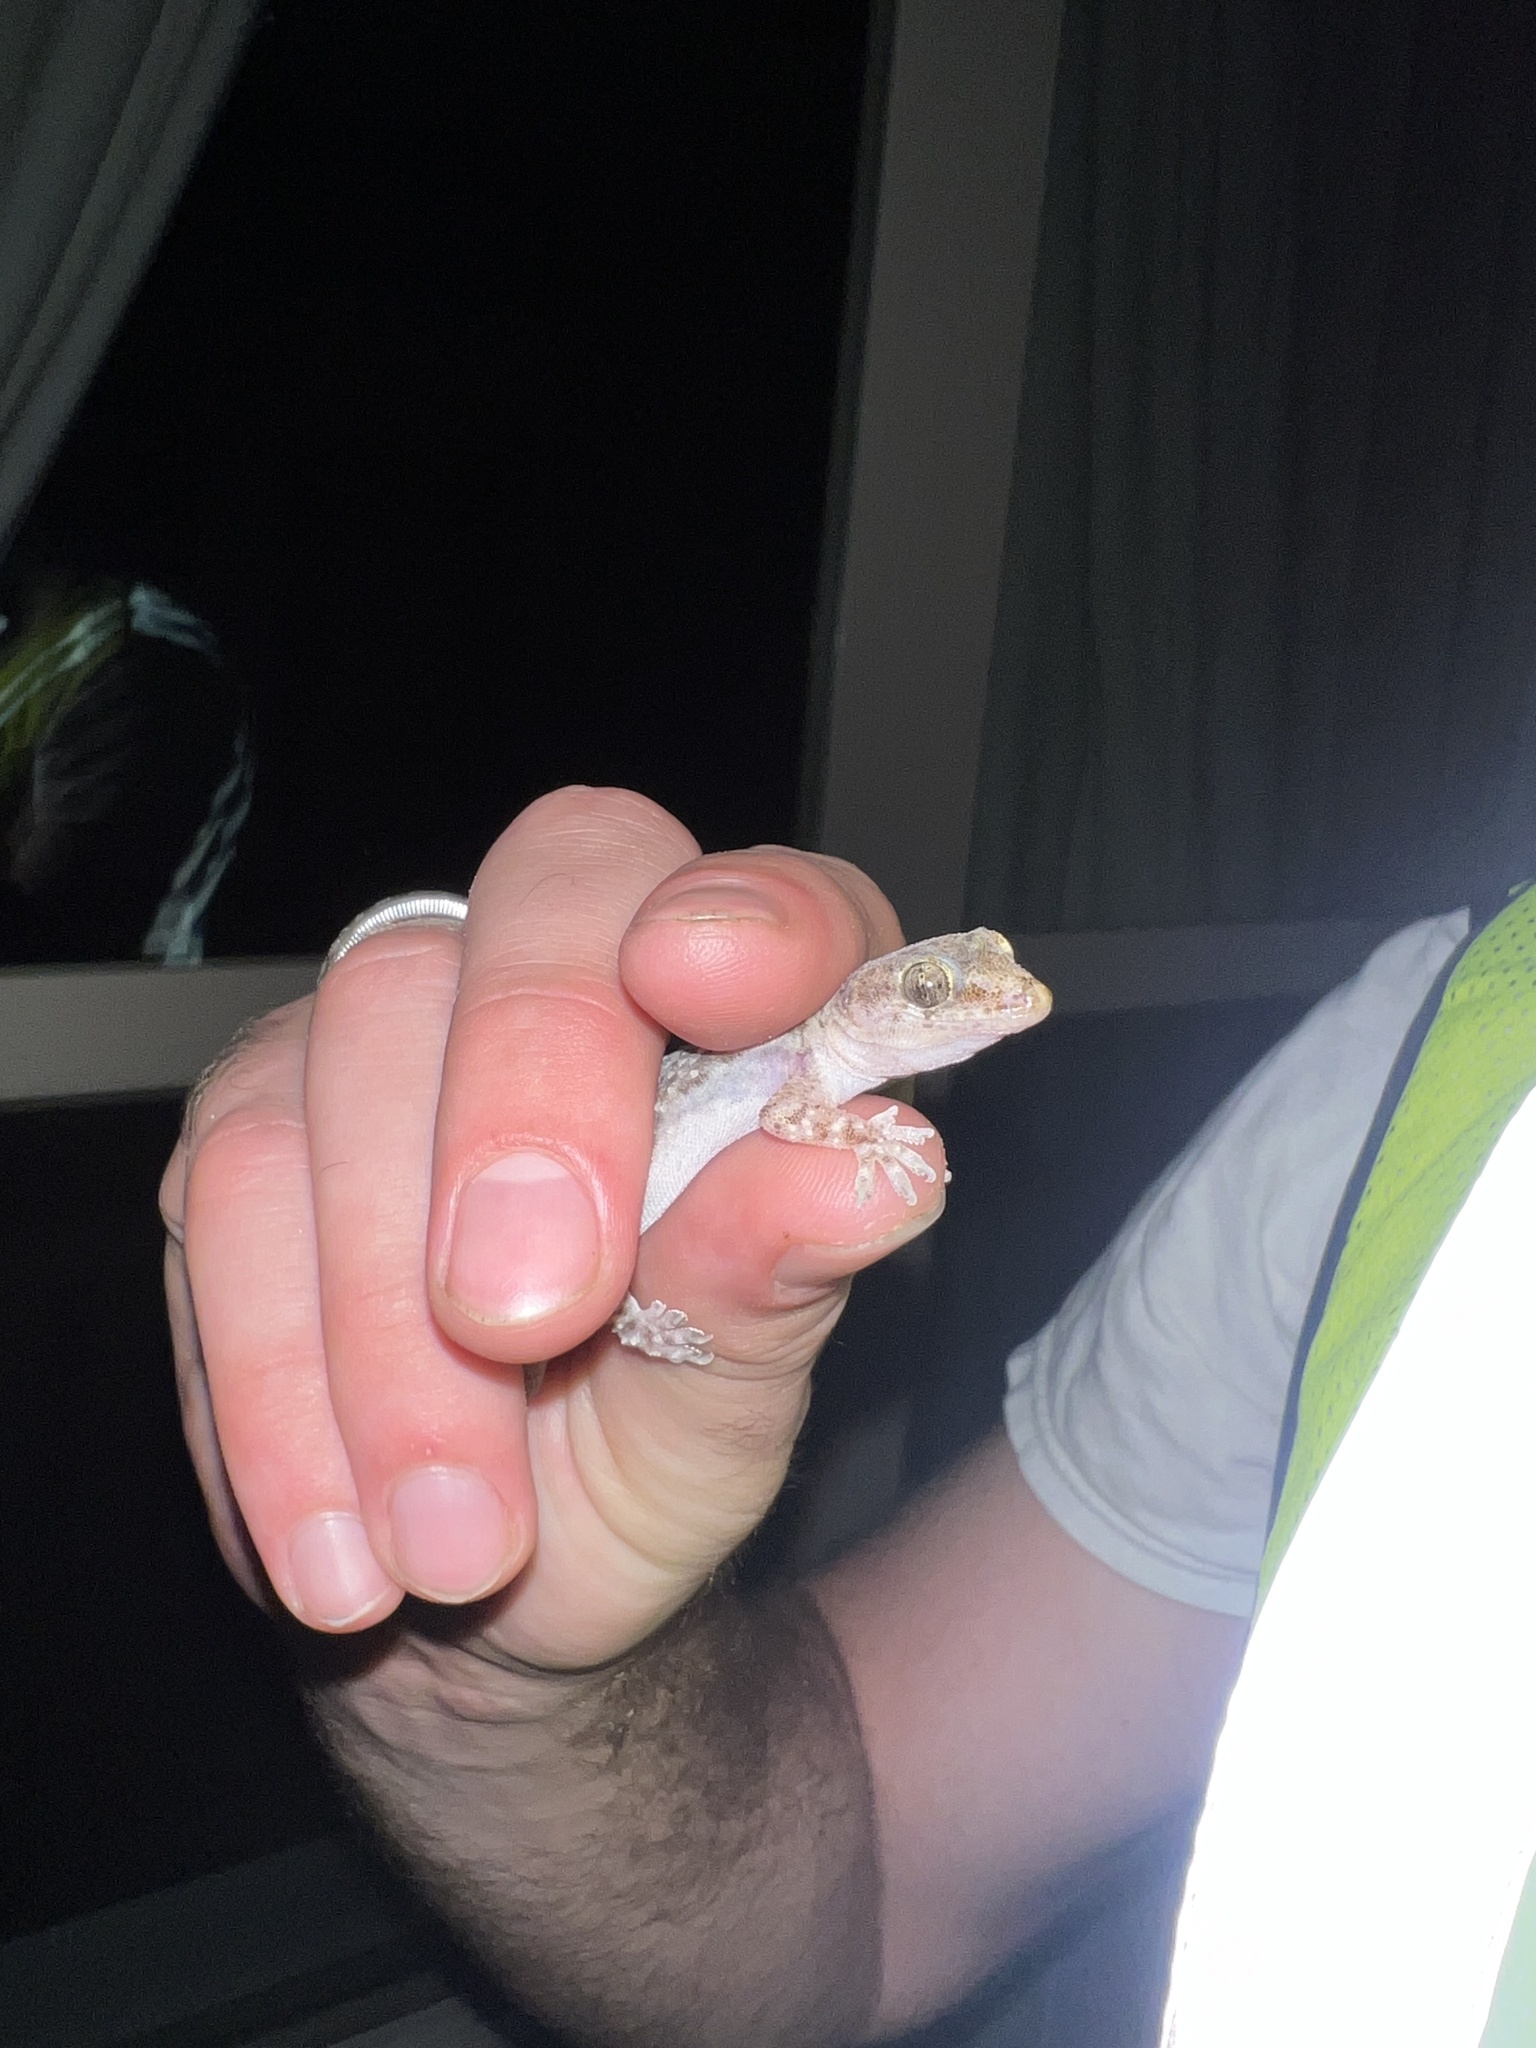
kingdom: Animalia
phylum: Chordata
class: Squamata
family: Gekkonidae
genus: Hemidactylus
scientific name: Hemidactylus turcicus
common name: Turkish gecko
